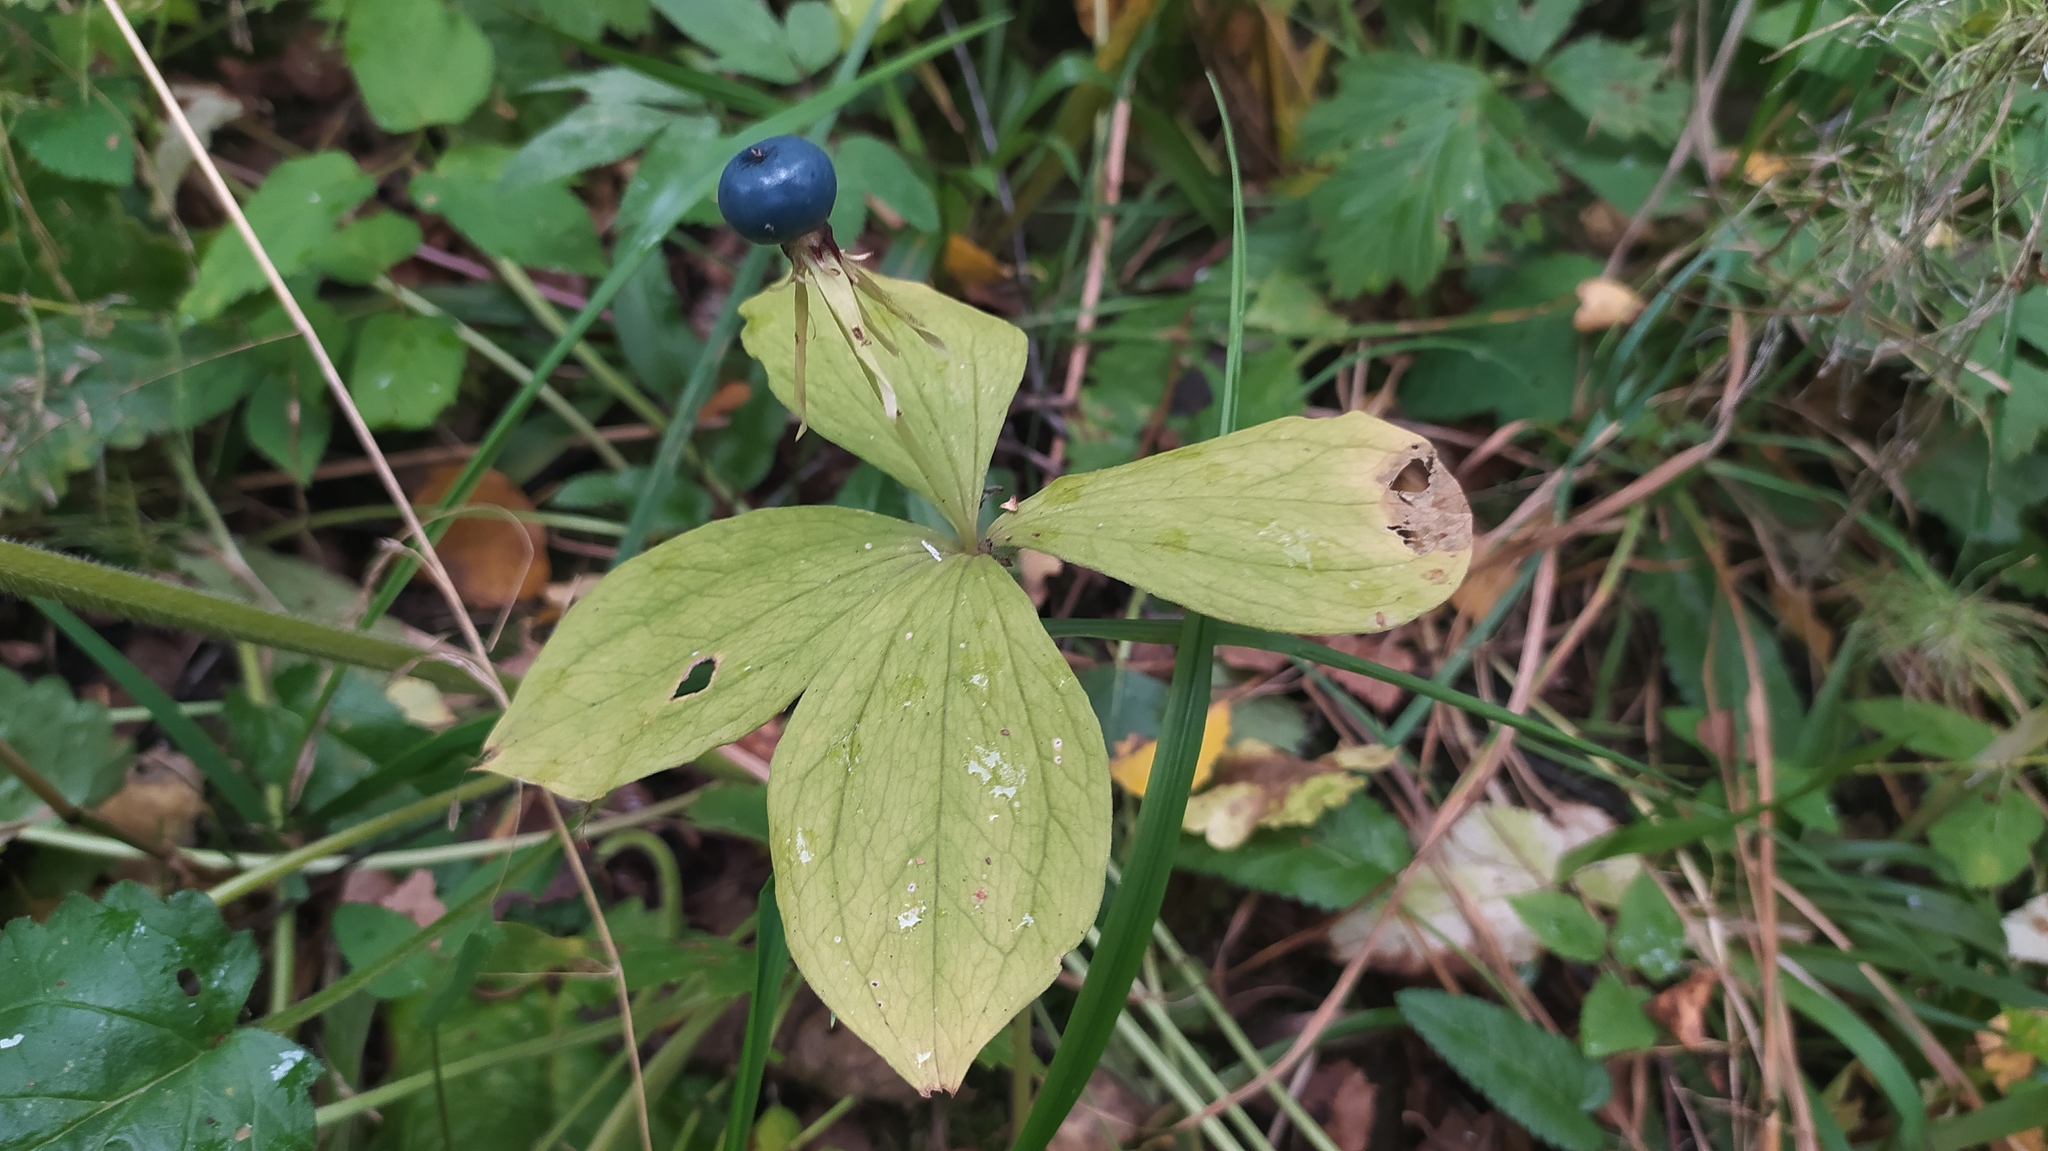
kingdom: Plantae
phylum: Tracheophyta
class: Liliopsida
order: Liliales
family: Melanthiaceae
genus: Paris
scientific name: Paris quadrifolia
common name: Herb-paris
